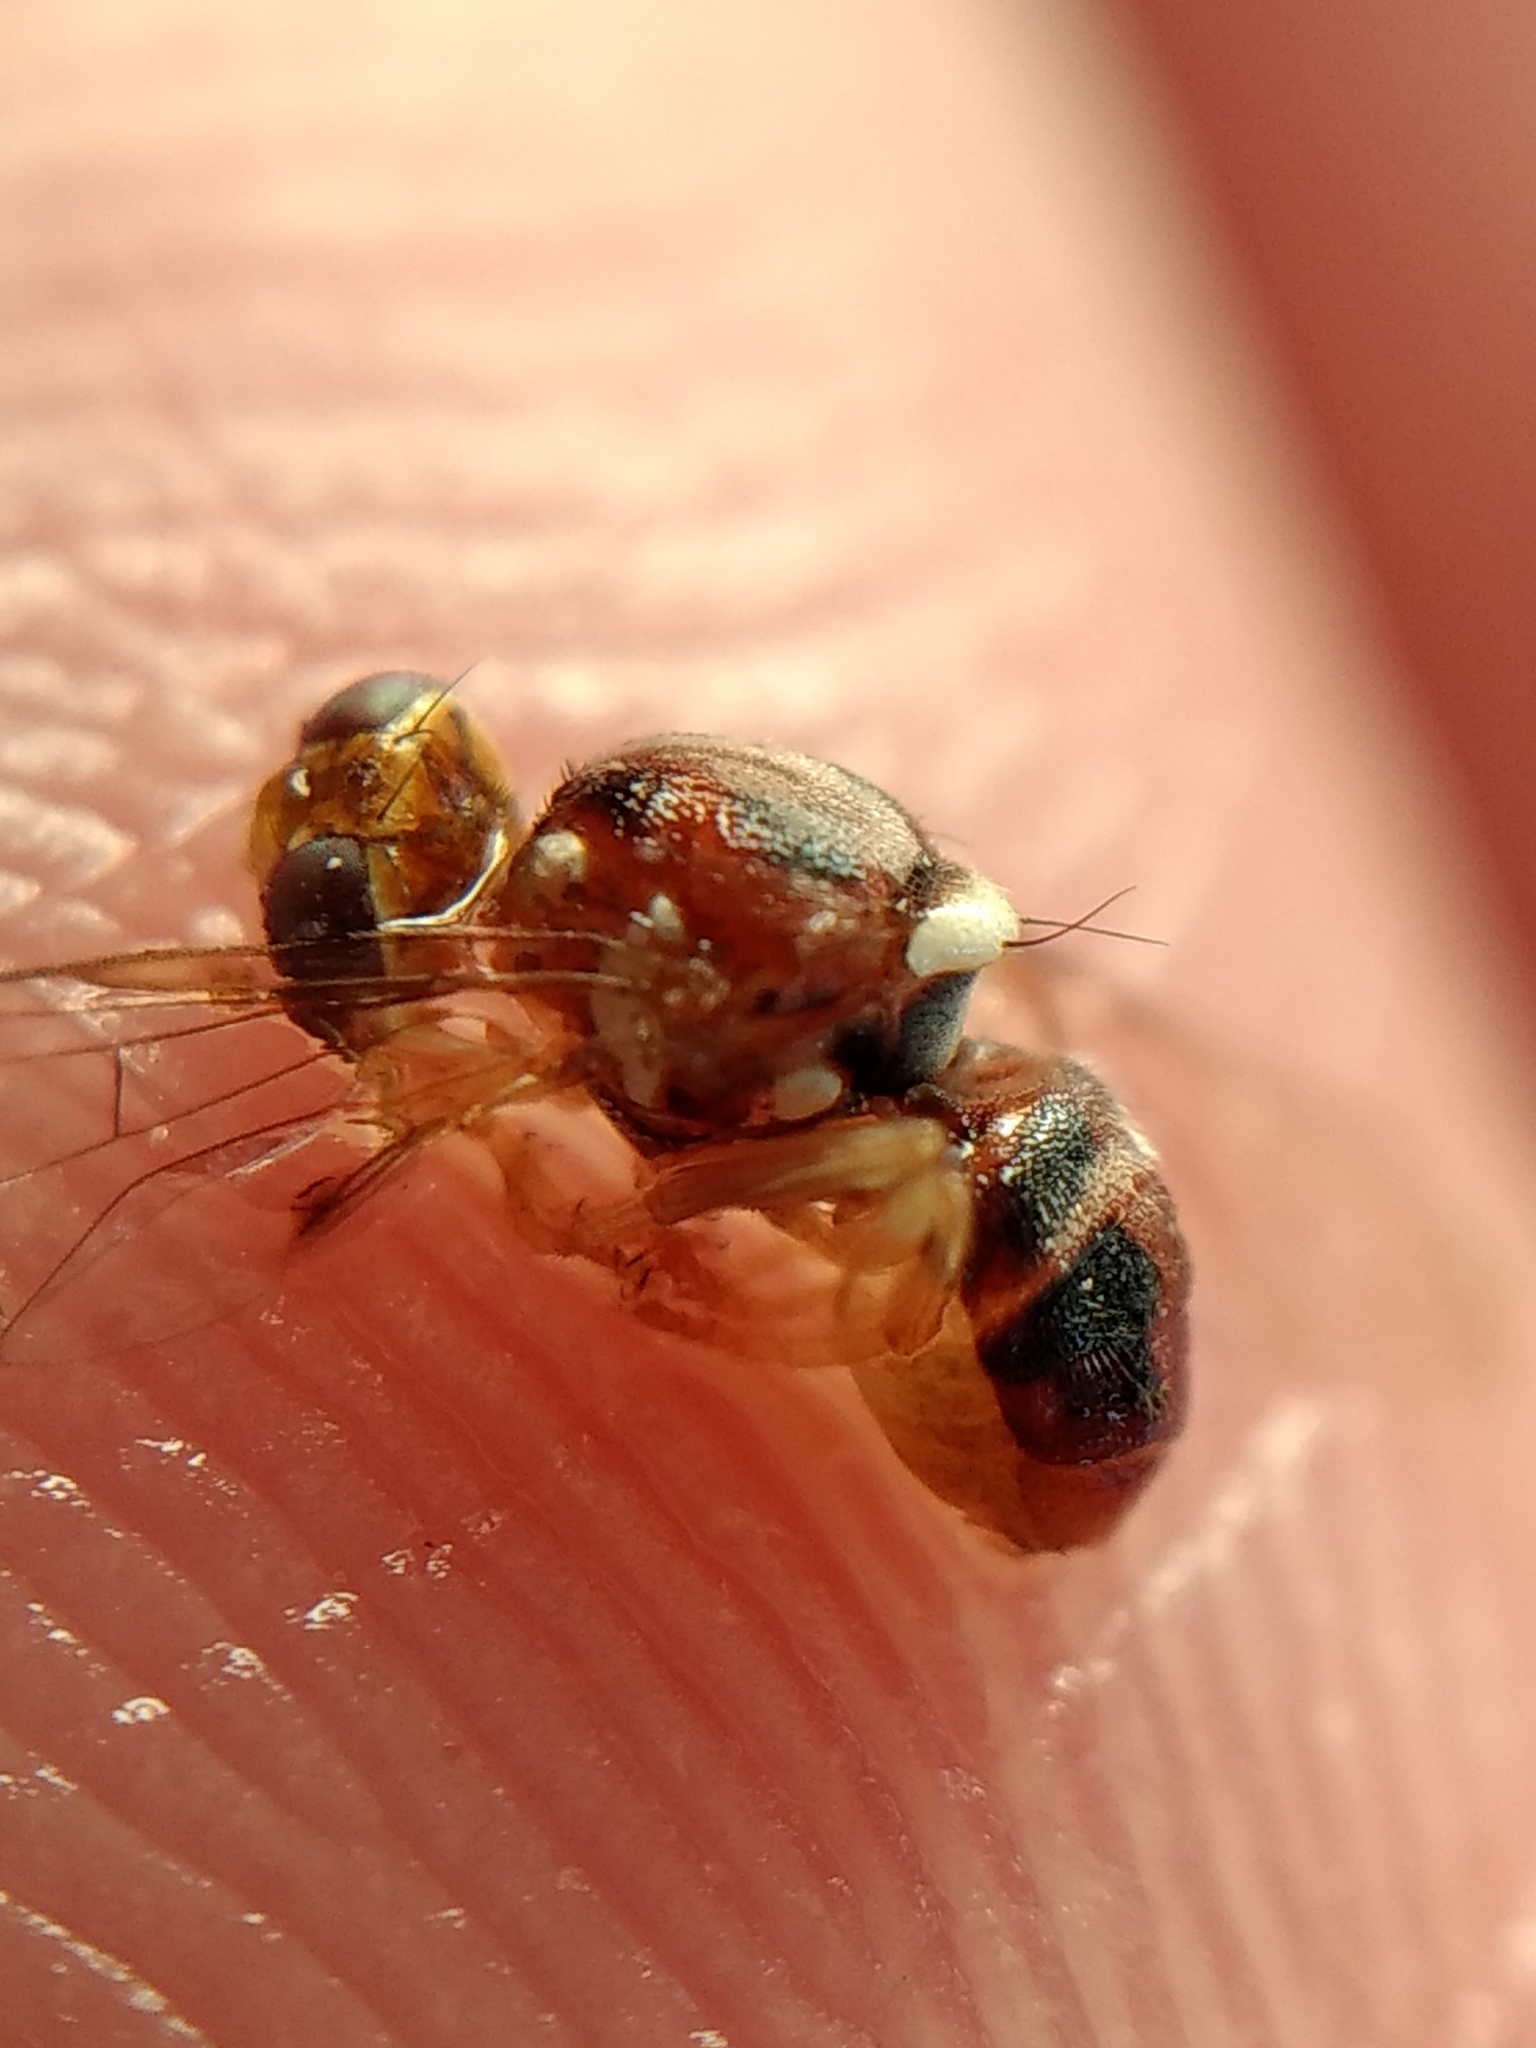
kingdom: Animalia
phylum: Arthropoda
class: Insecta
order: Diptera
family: Tephritidae
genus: Bactrocera
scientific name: Bactrocera oleae
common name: Olive fruit fly
